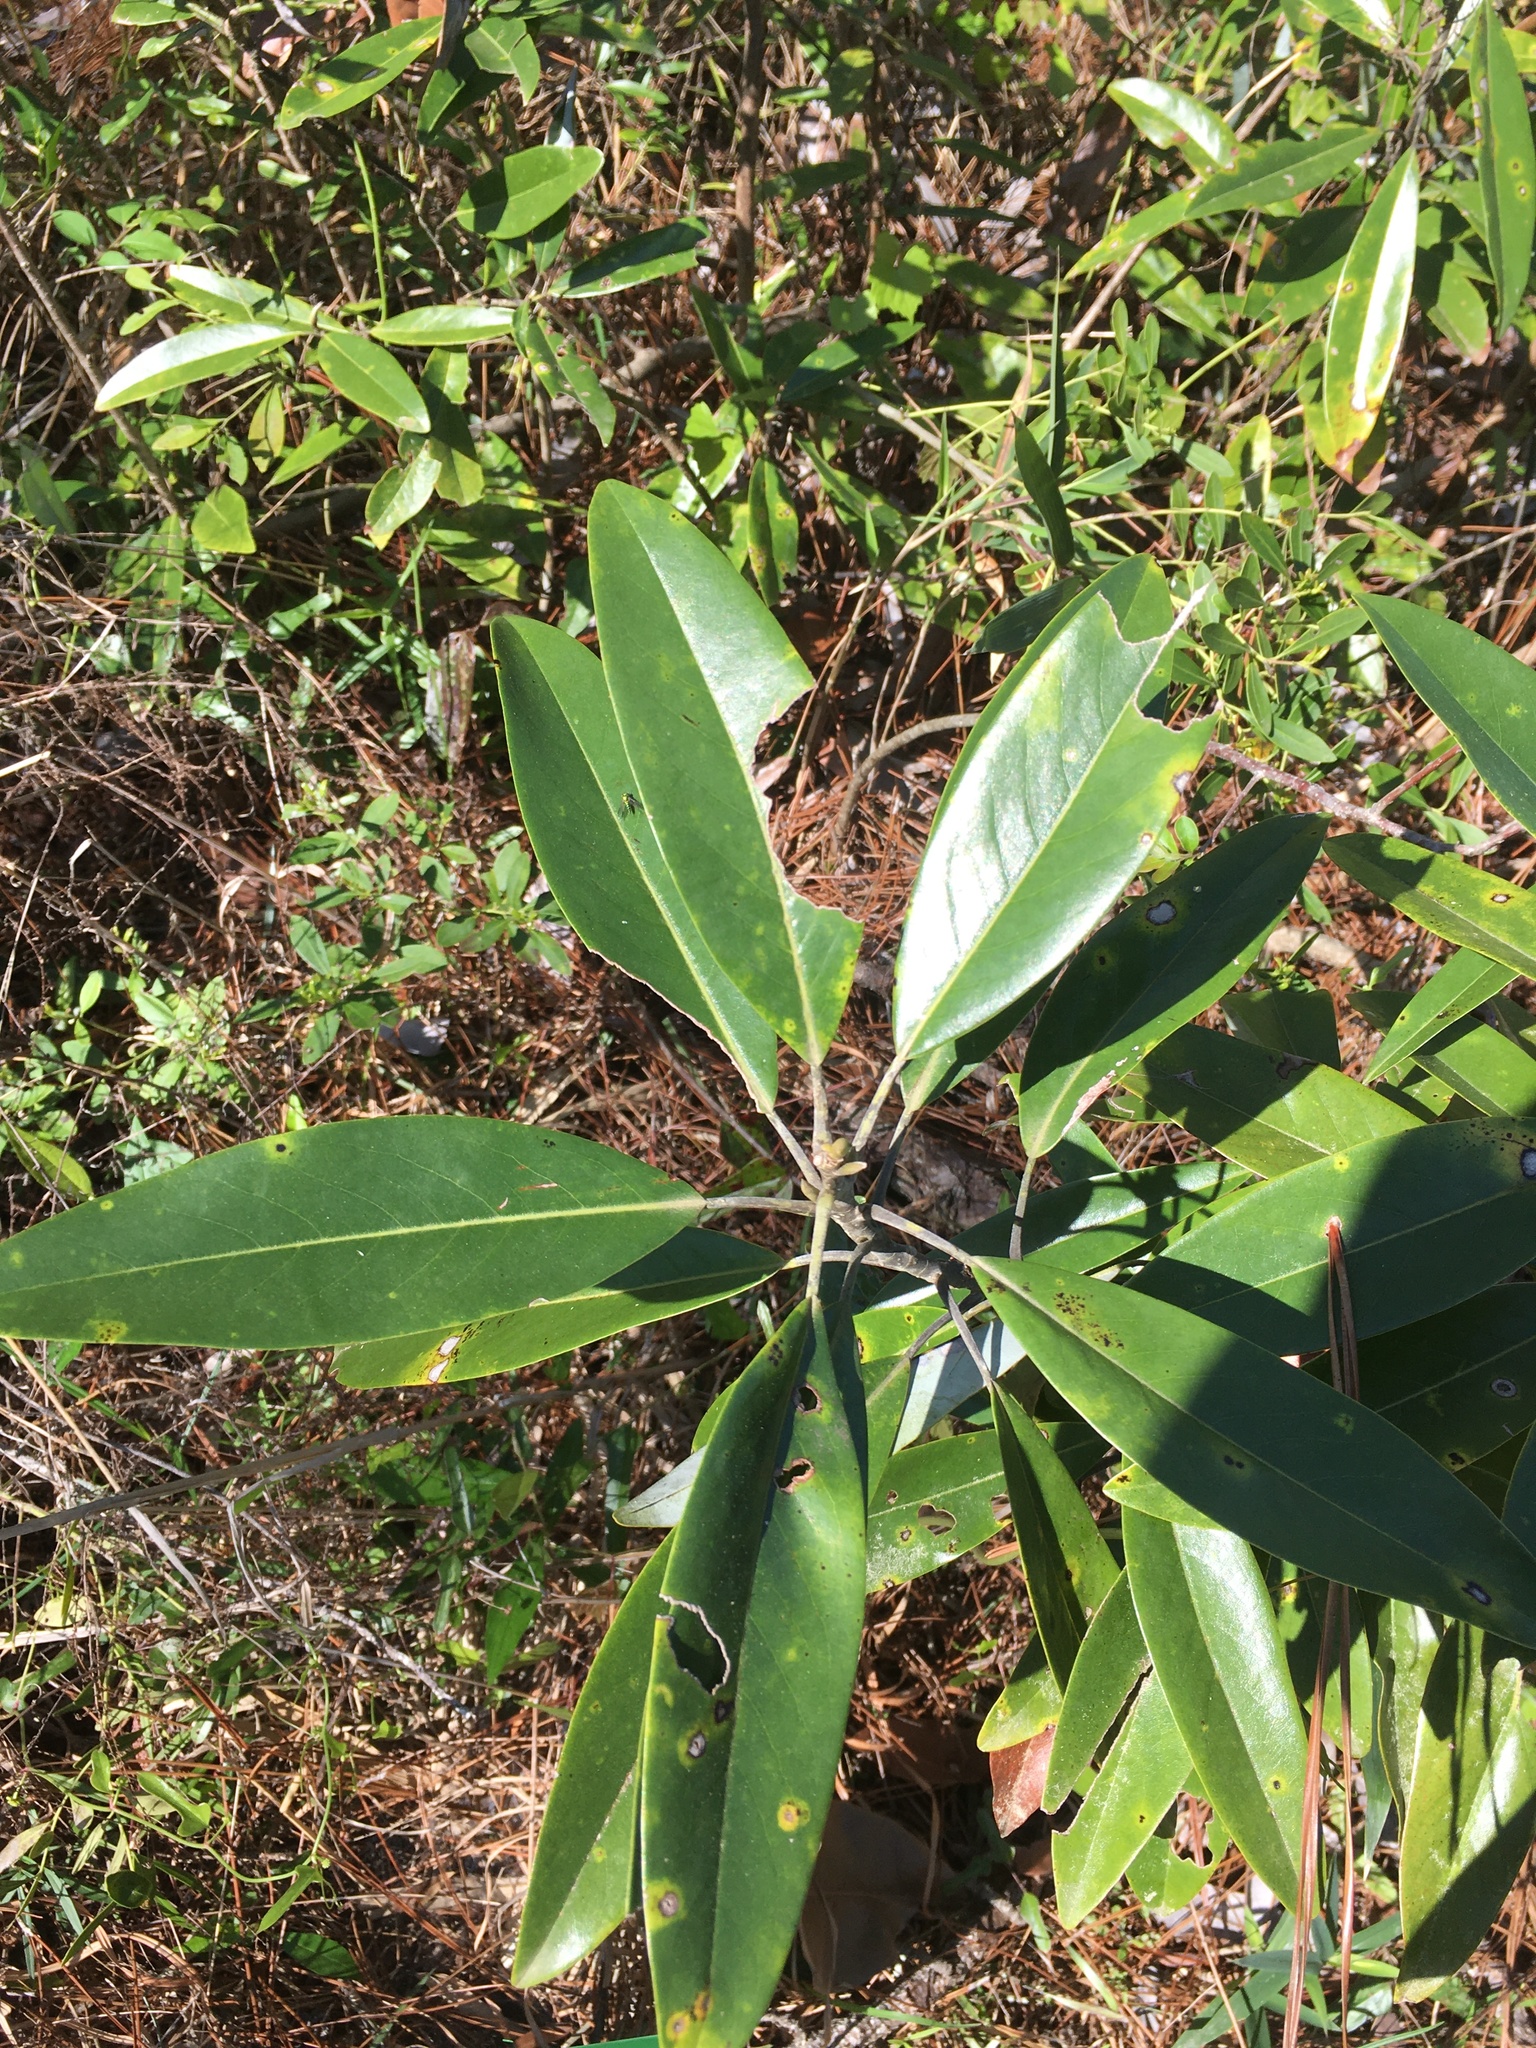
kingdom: Plantae
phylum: Tracheophyta
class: Magnoliopsida
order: Magnoliales
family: Magnoliaceae
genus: Magnolia
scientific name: Magnolia virginiana
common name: Swamp bay
